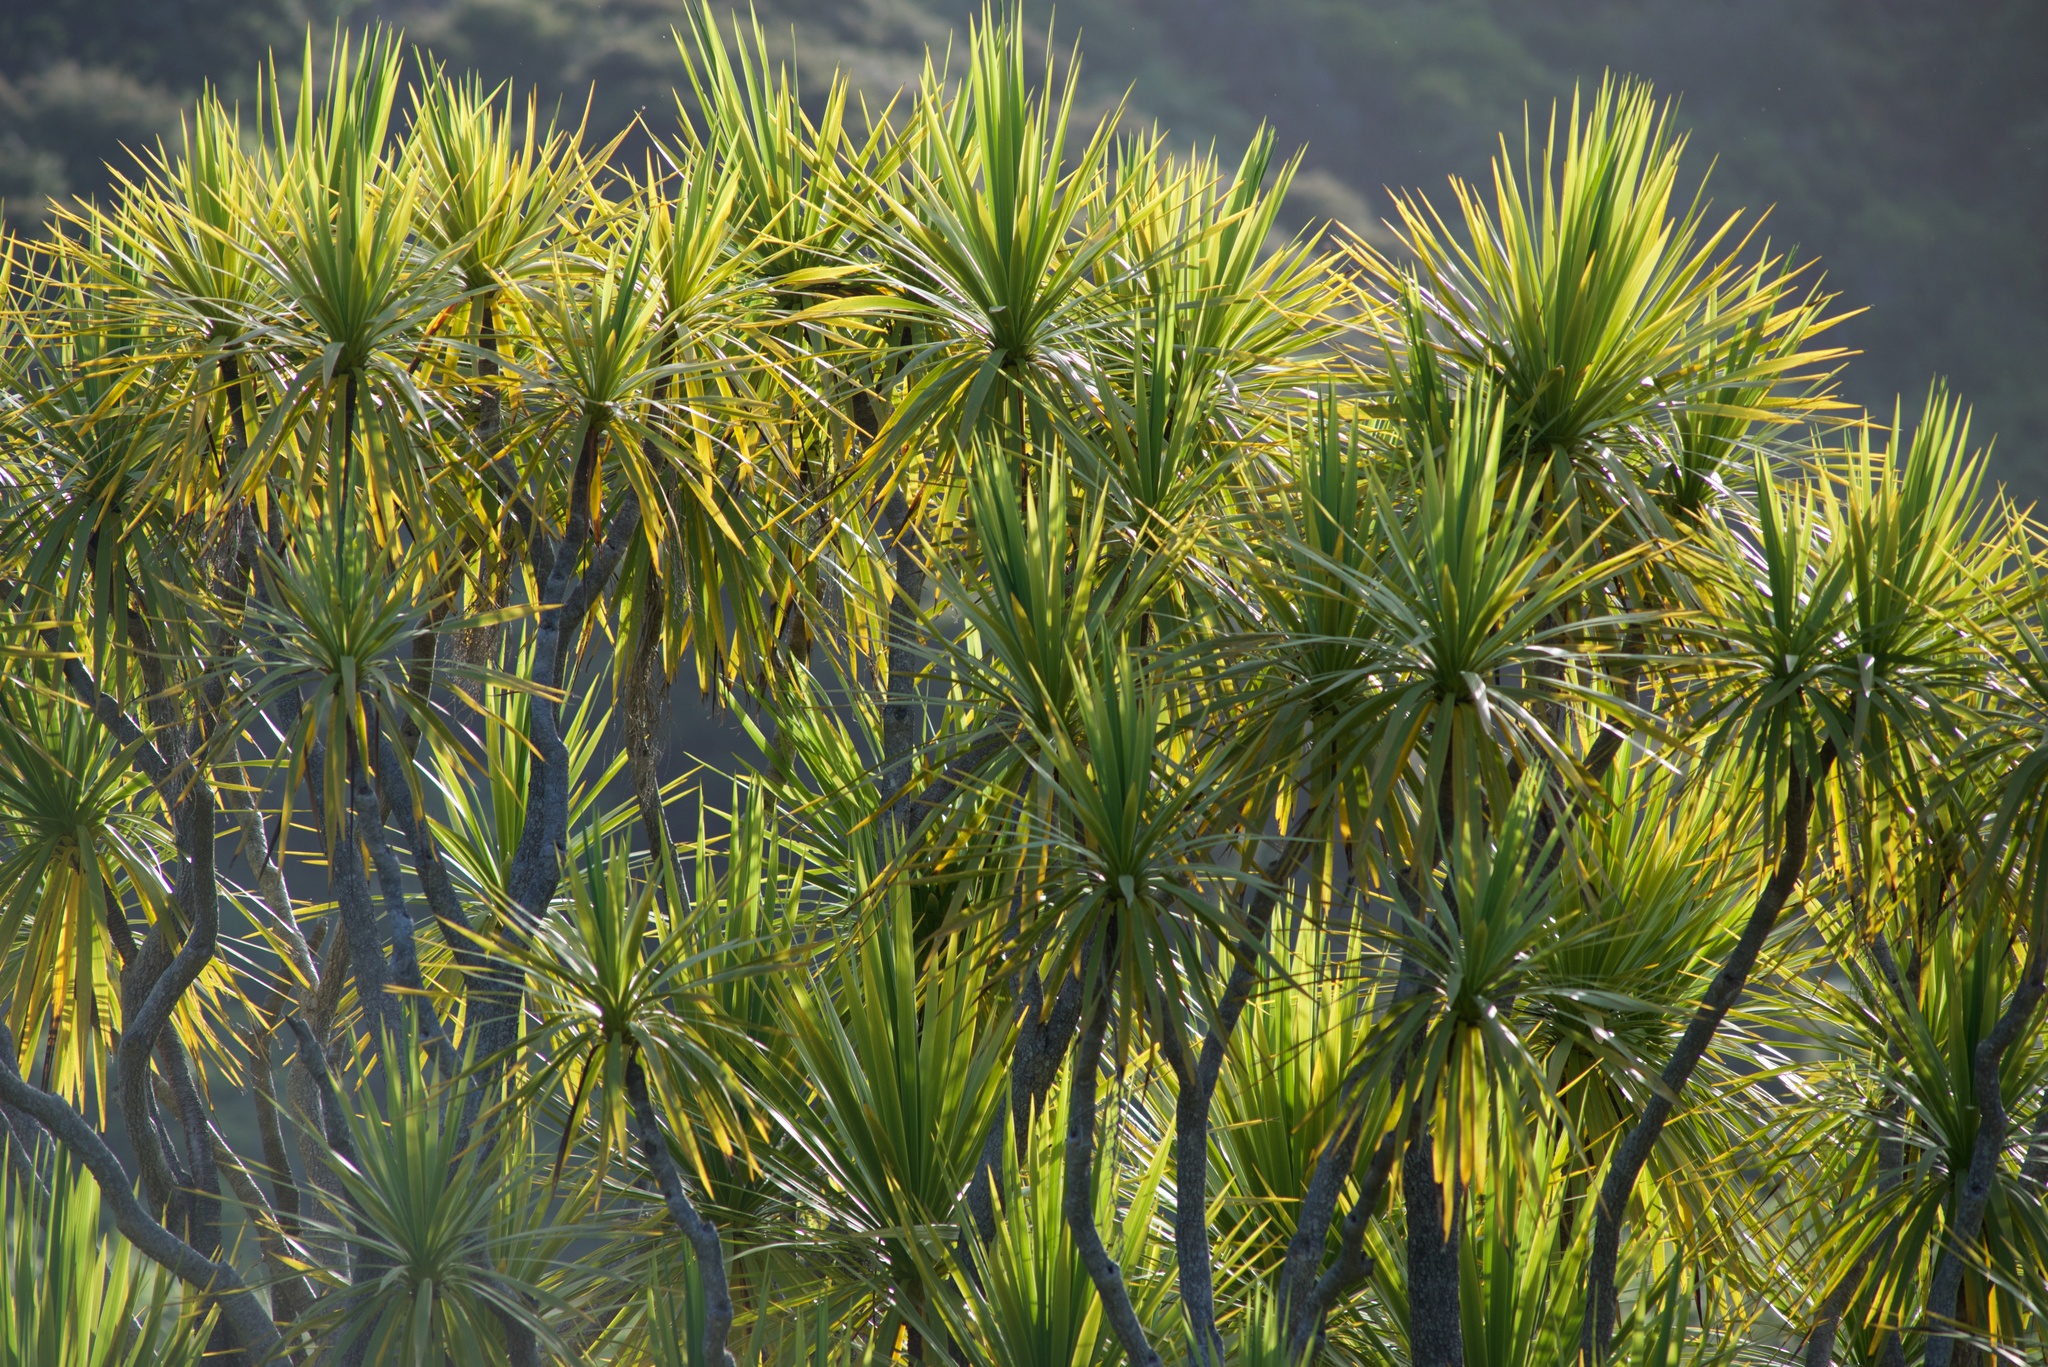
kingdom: Plantae
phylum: Tracheophyta
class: Liliopsida
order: Asparagales
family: Asparagaceae
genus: Cordyline
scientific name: Cordyline australis
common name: Cabbage-palm
